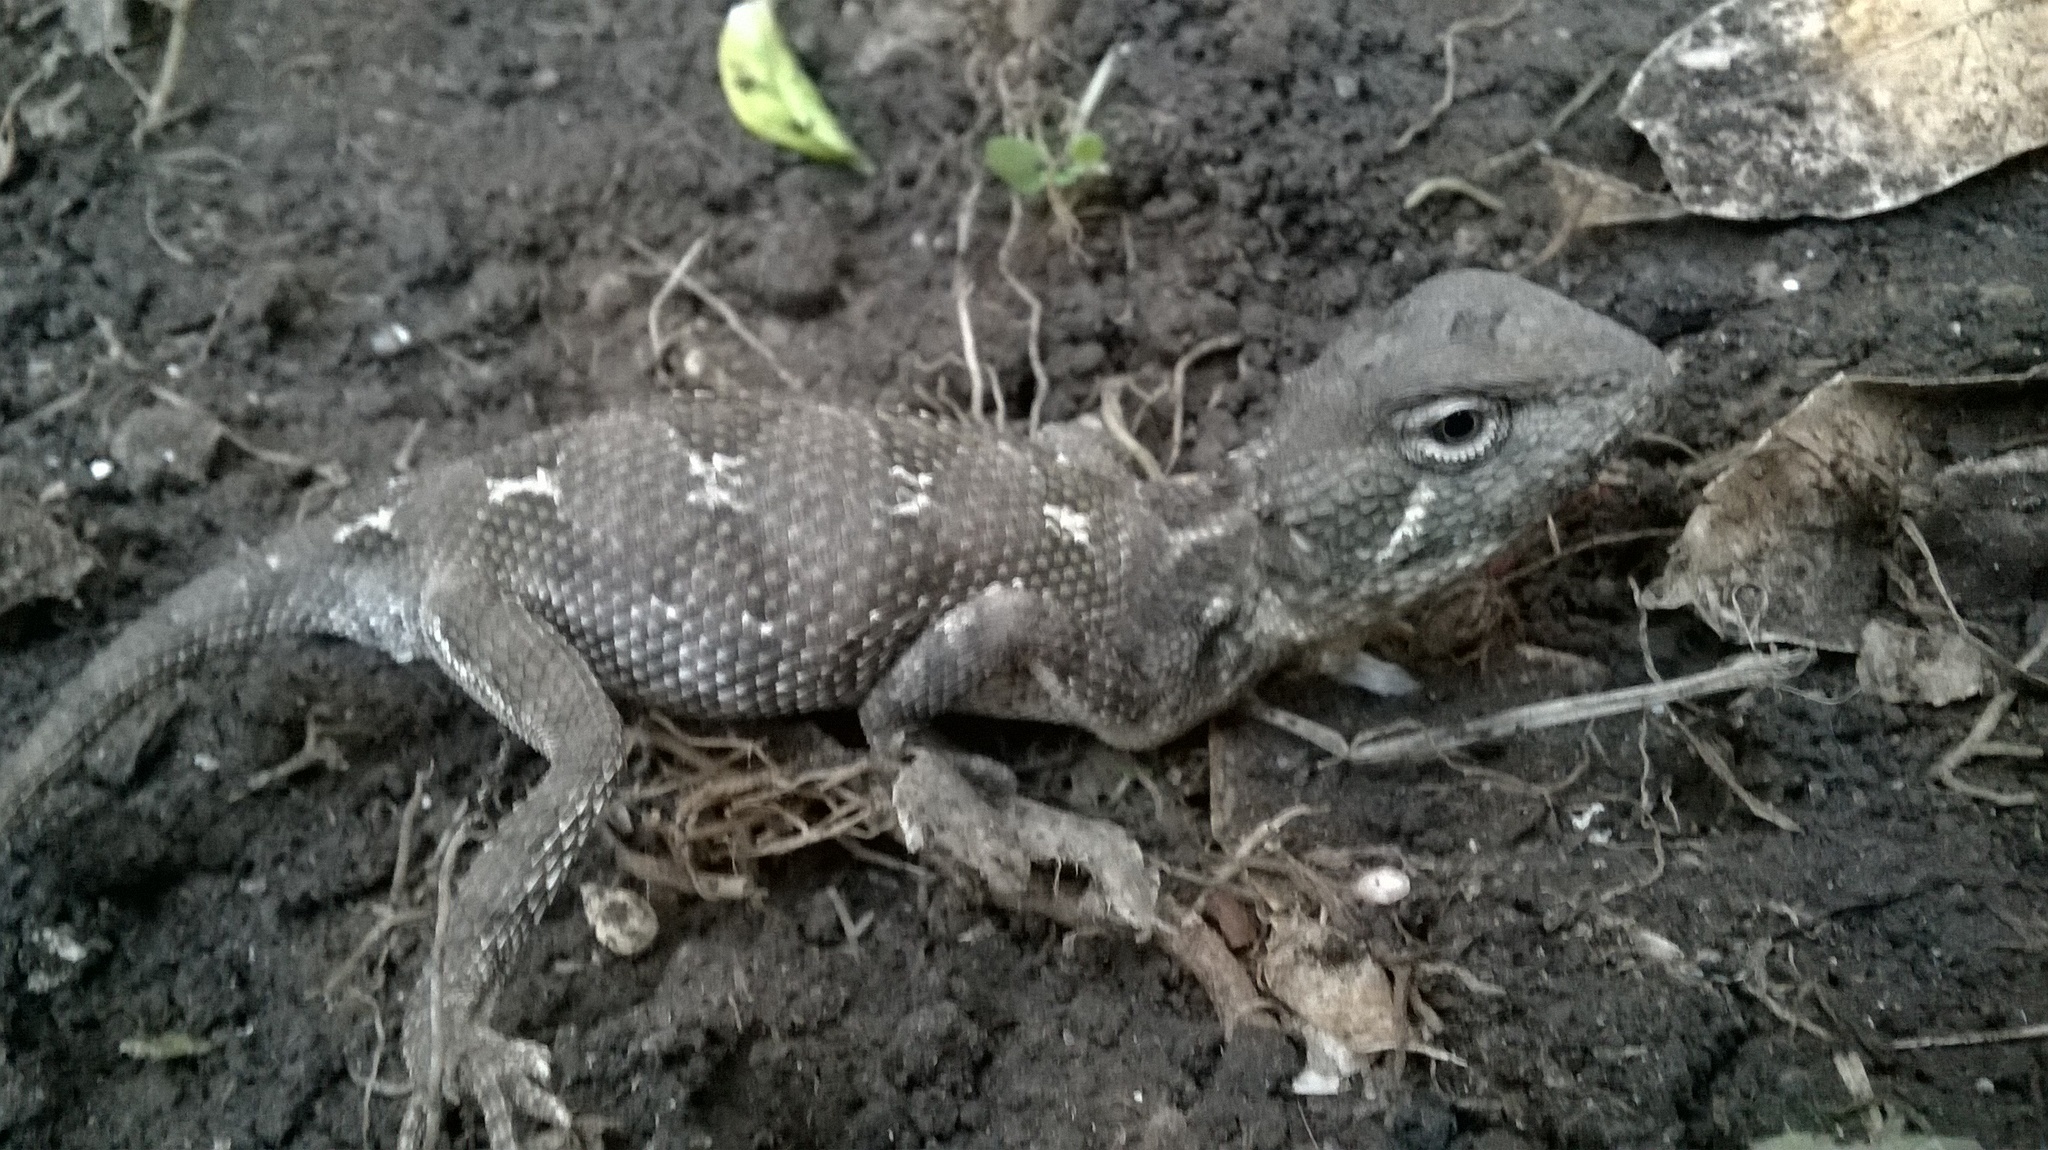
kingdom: Animalia
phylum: Chordata
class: Squamata
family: Agamidae
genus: Calotes
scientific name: Calotes minor
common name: Dwarf rock agama
